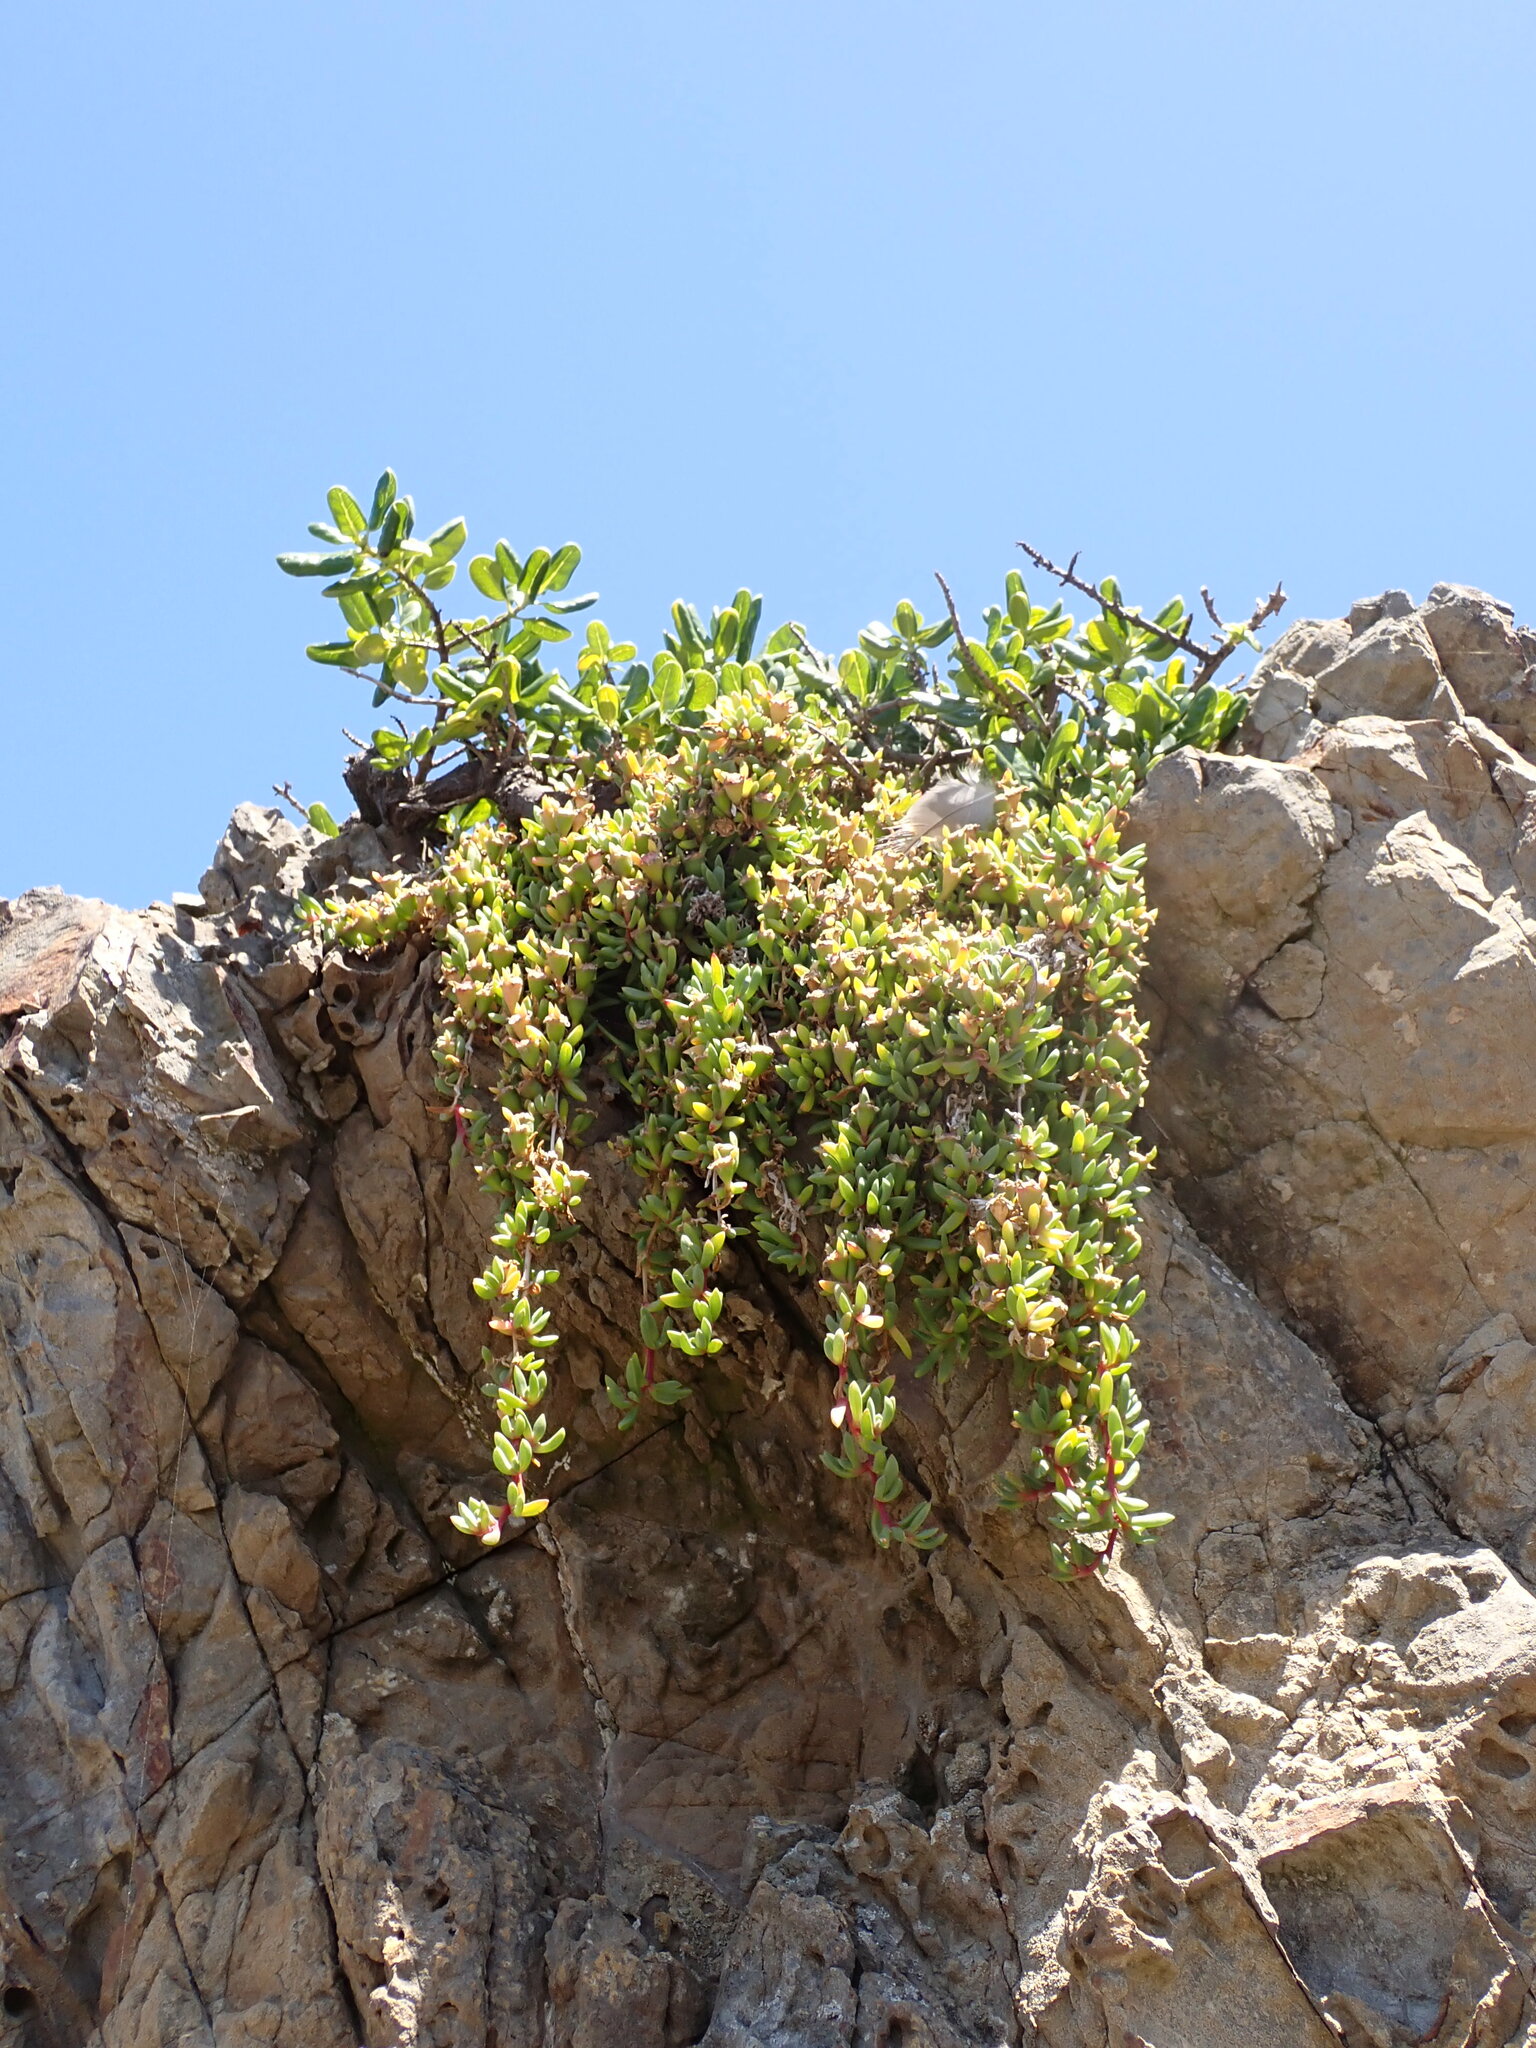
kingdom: Plantae
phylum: Tracheophyta
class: Magnoliopsida
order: Caryophyllales
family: Aizoaceae
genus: Disphyma
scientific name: Disphyma australe
